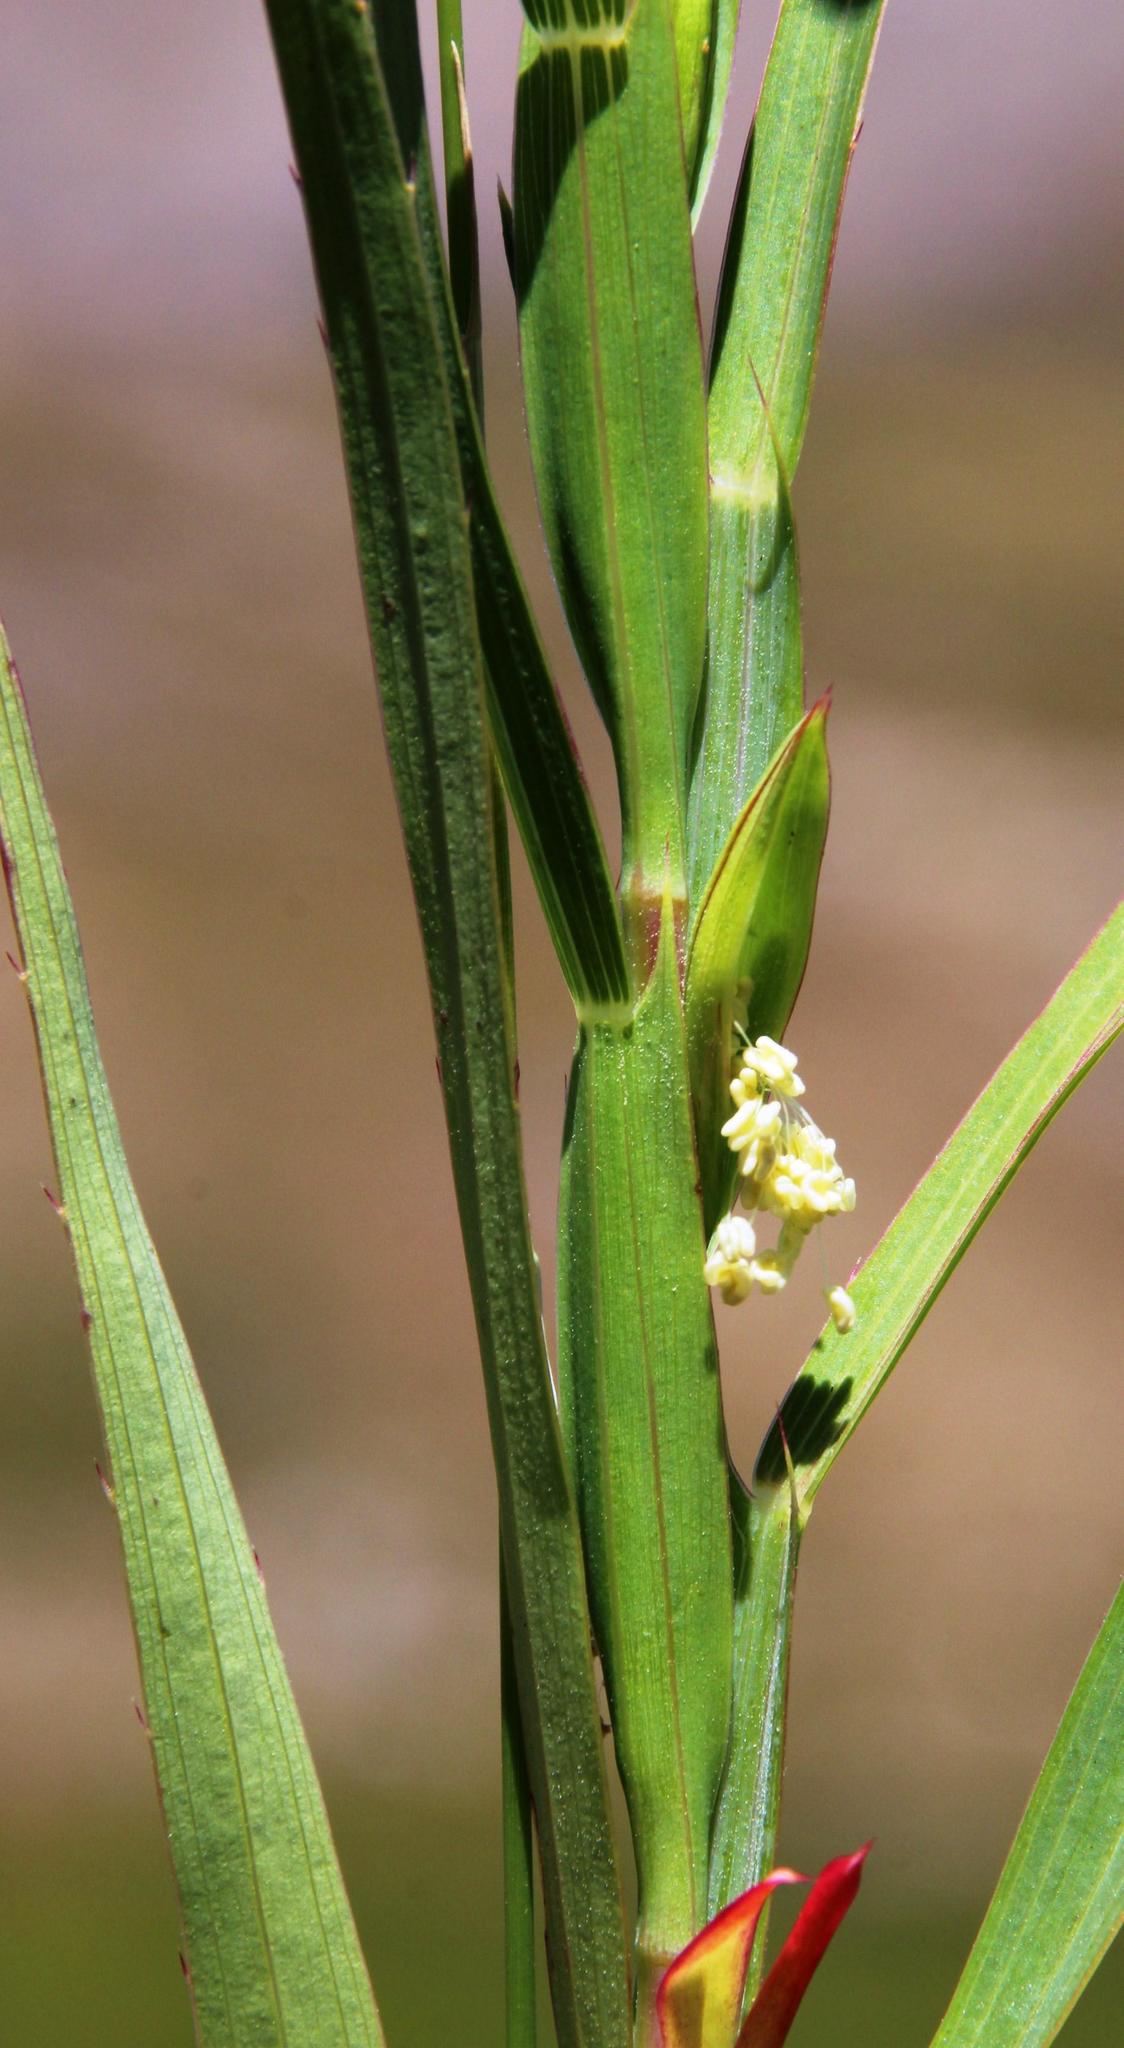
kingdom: Plantae
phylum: Tracheophyta
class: Magnoliopsida
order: Rosales
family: Rosaceae
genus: Cliffortia
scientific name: Cliffortia graminea
